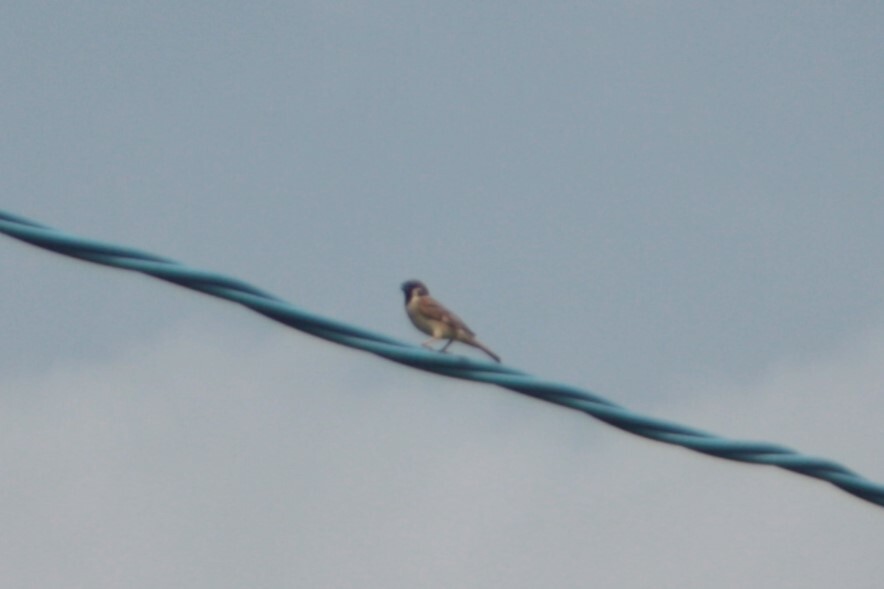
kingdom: Animalia
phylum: Chordata
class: Aves
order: Passeriformes
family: Passeridae
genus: Passer
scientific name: Passer montanus
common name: Eurasian tree sparrow
